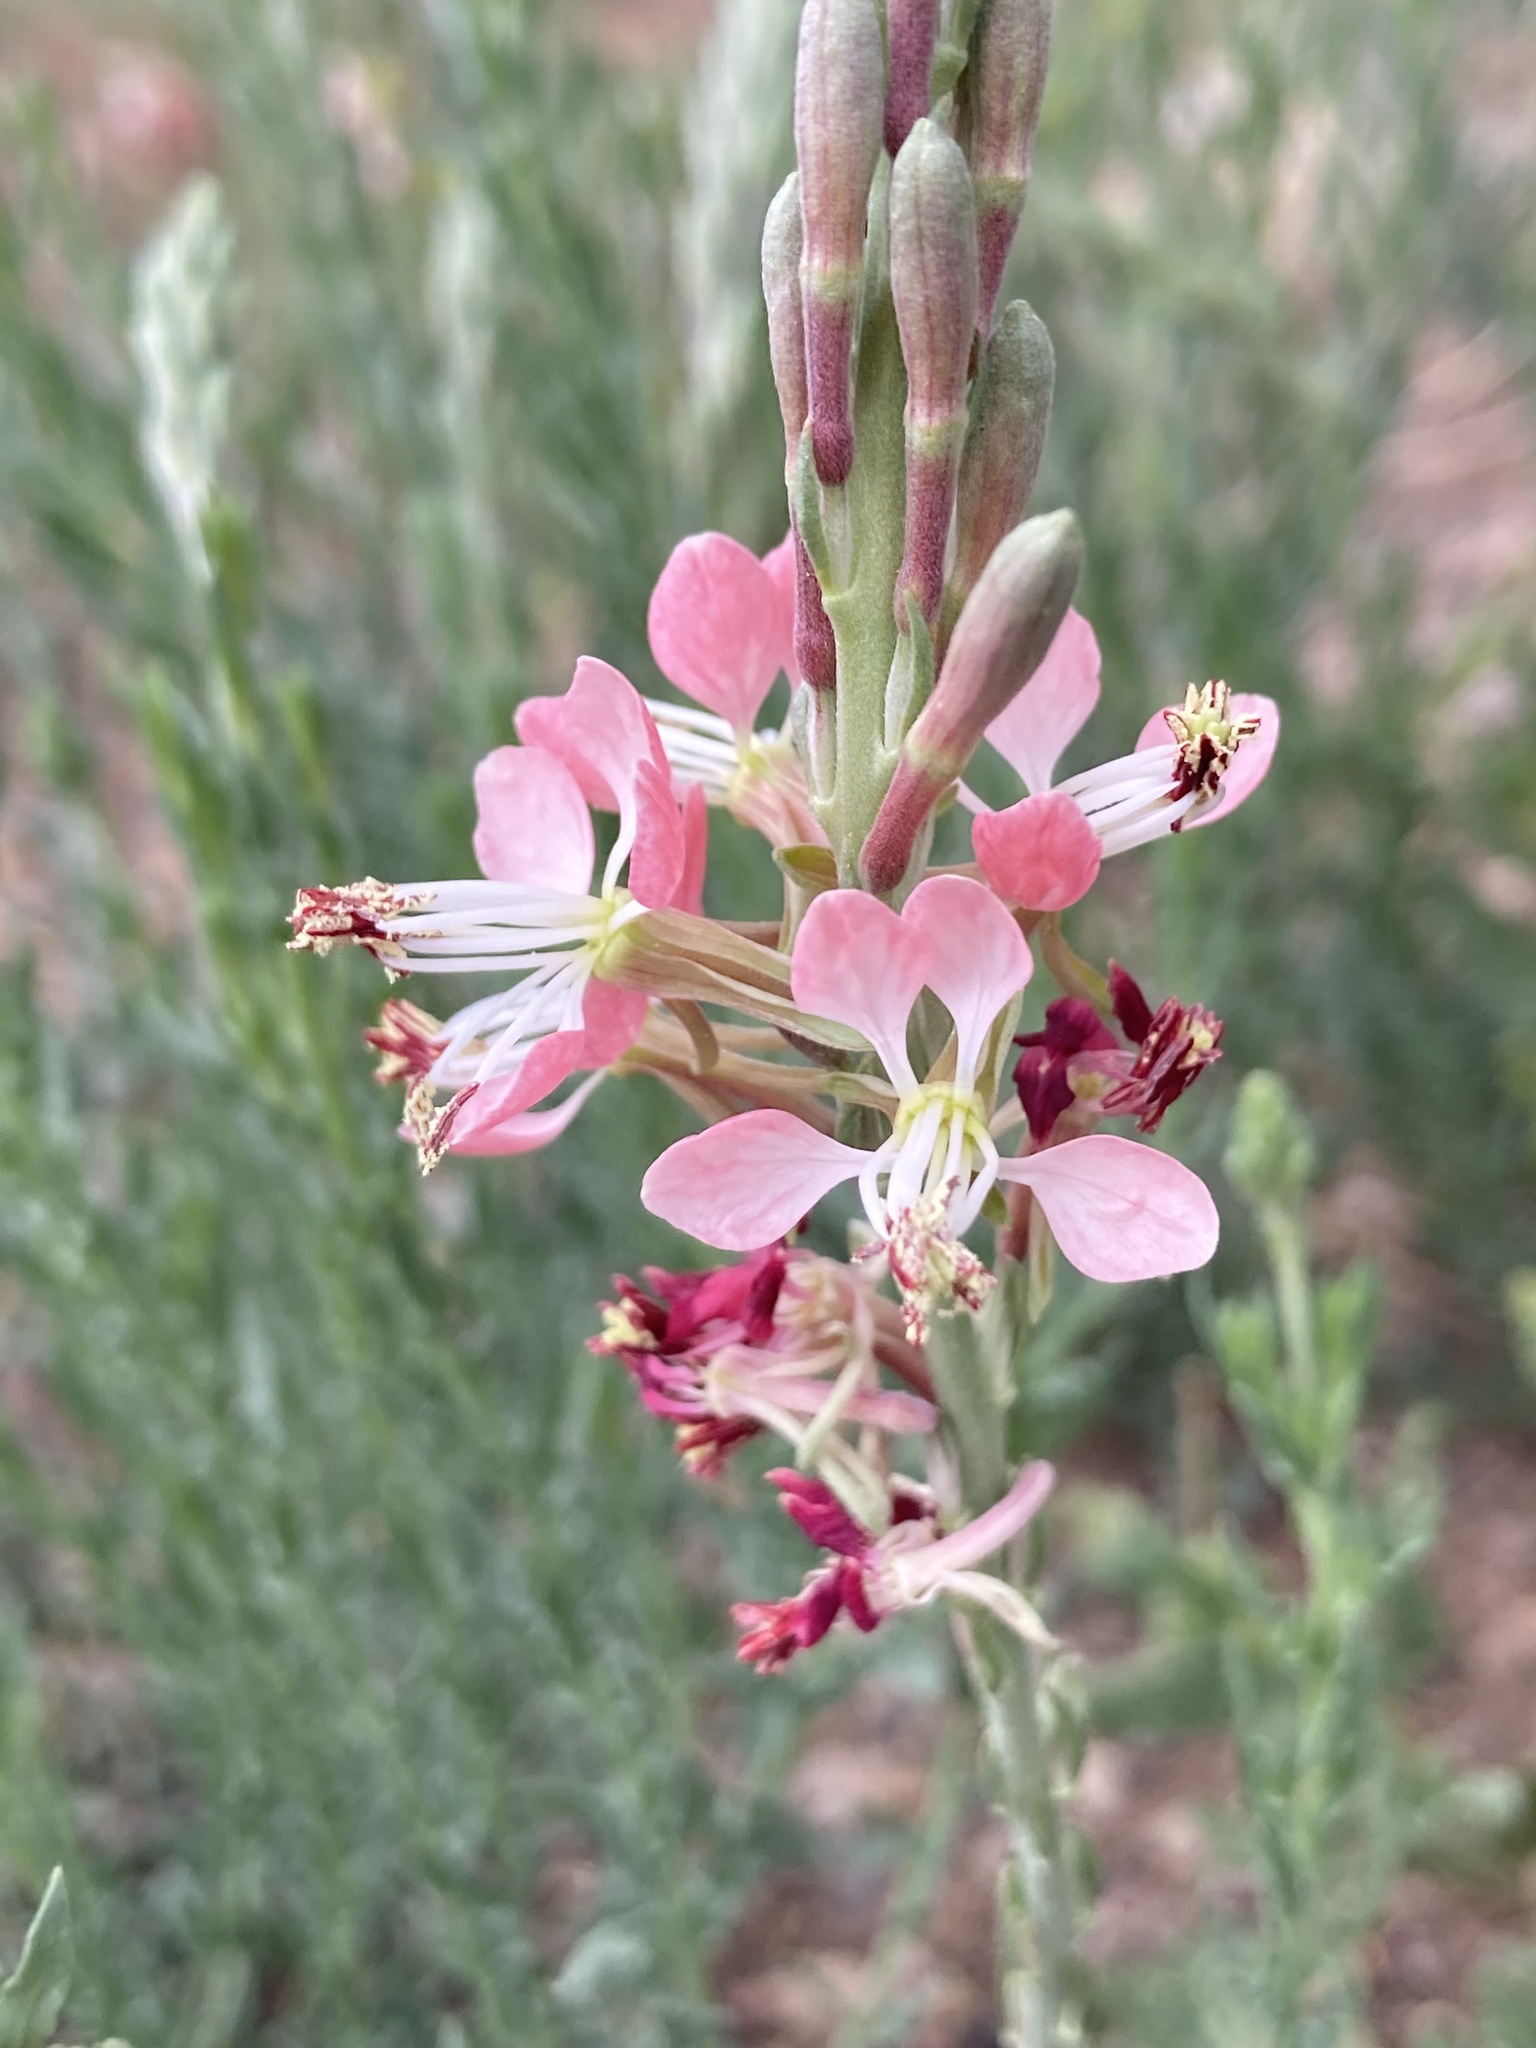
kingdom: Plantae
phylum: Tracheophyta
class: Magnoliopsida
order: Myrtales
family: Onagraceae
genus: Oenothera
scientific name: Oenothera suffrutescens
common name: Scarlet beeblossom
